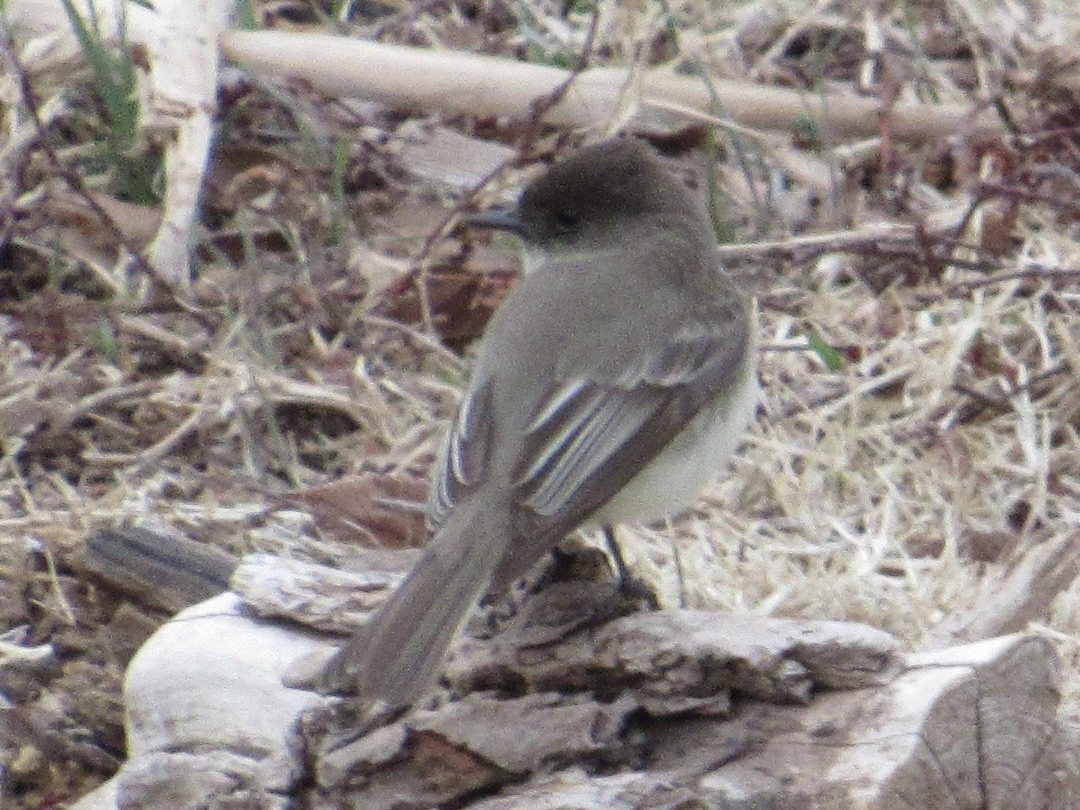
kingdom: Animalia
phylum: Chordata
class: Aves
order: Passeriformes
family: Tyrannidae
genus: Sayornis
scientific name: Sayornis phoebe
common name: Eastern phoebe
